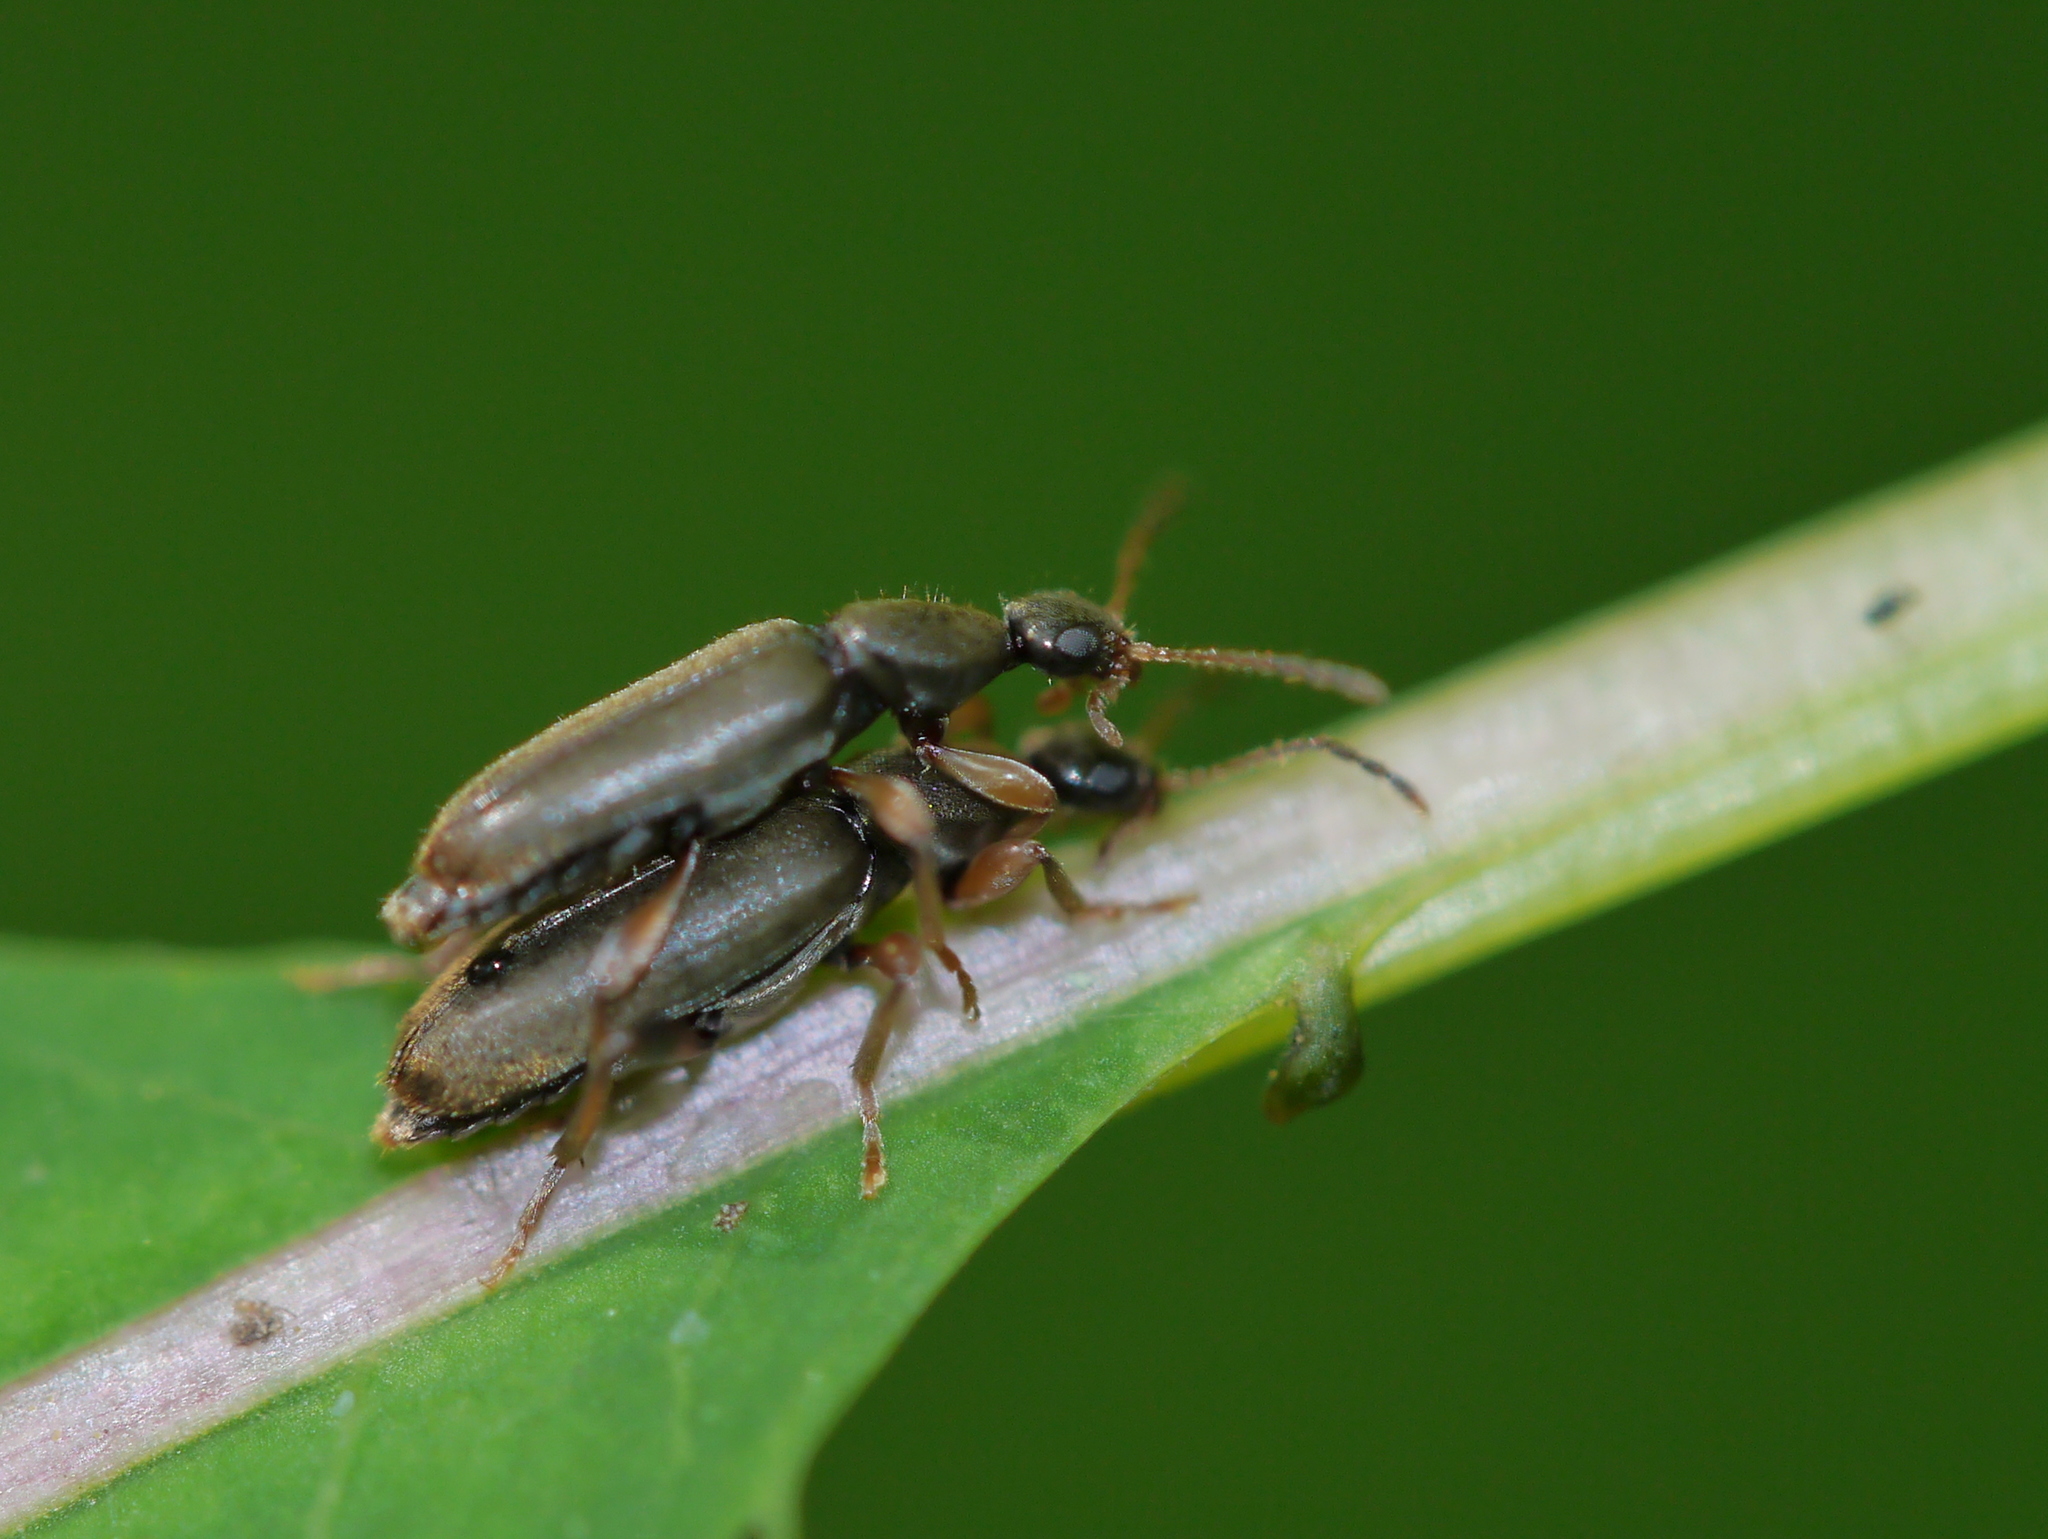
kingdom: Animalia
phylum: Arthropoda
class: Insecta
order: Coleoptera
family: Anthicidae
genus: Macratria
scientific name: Macratria murina
